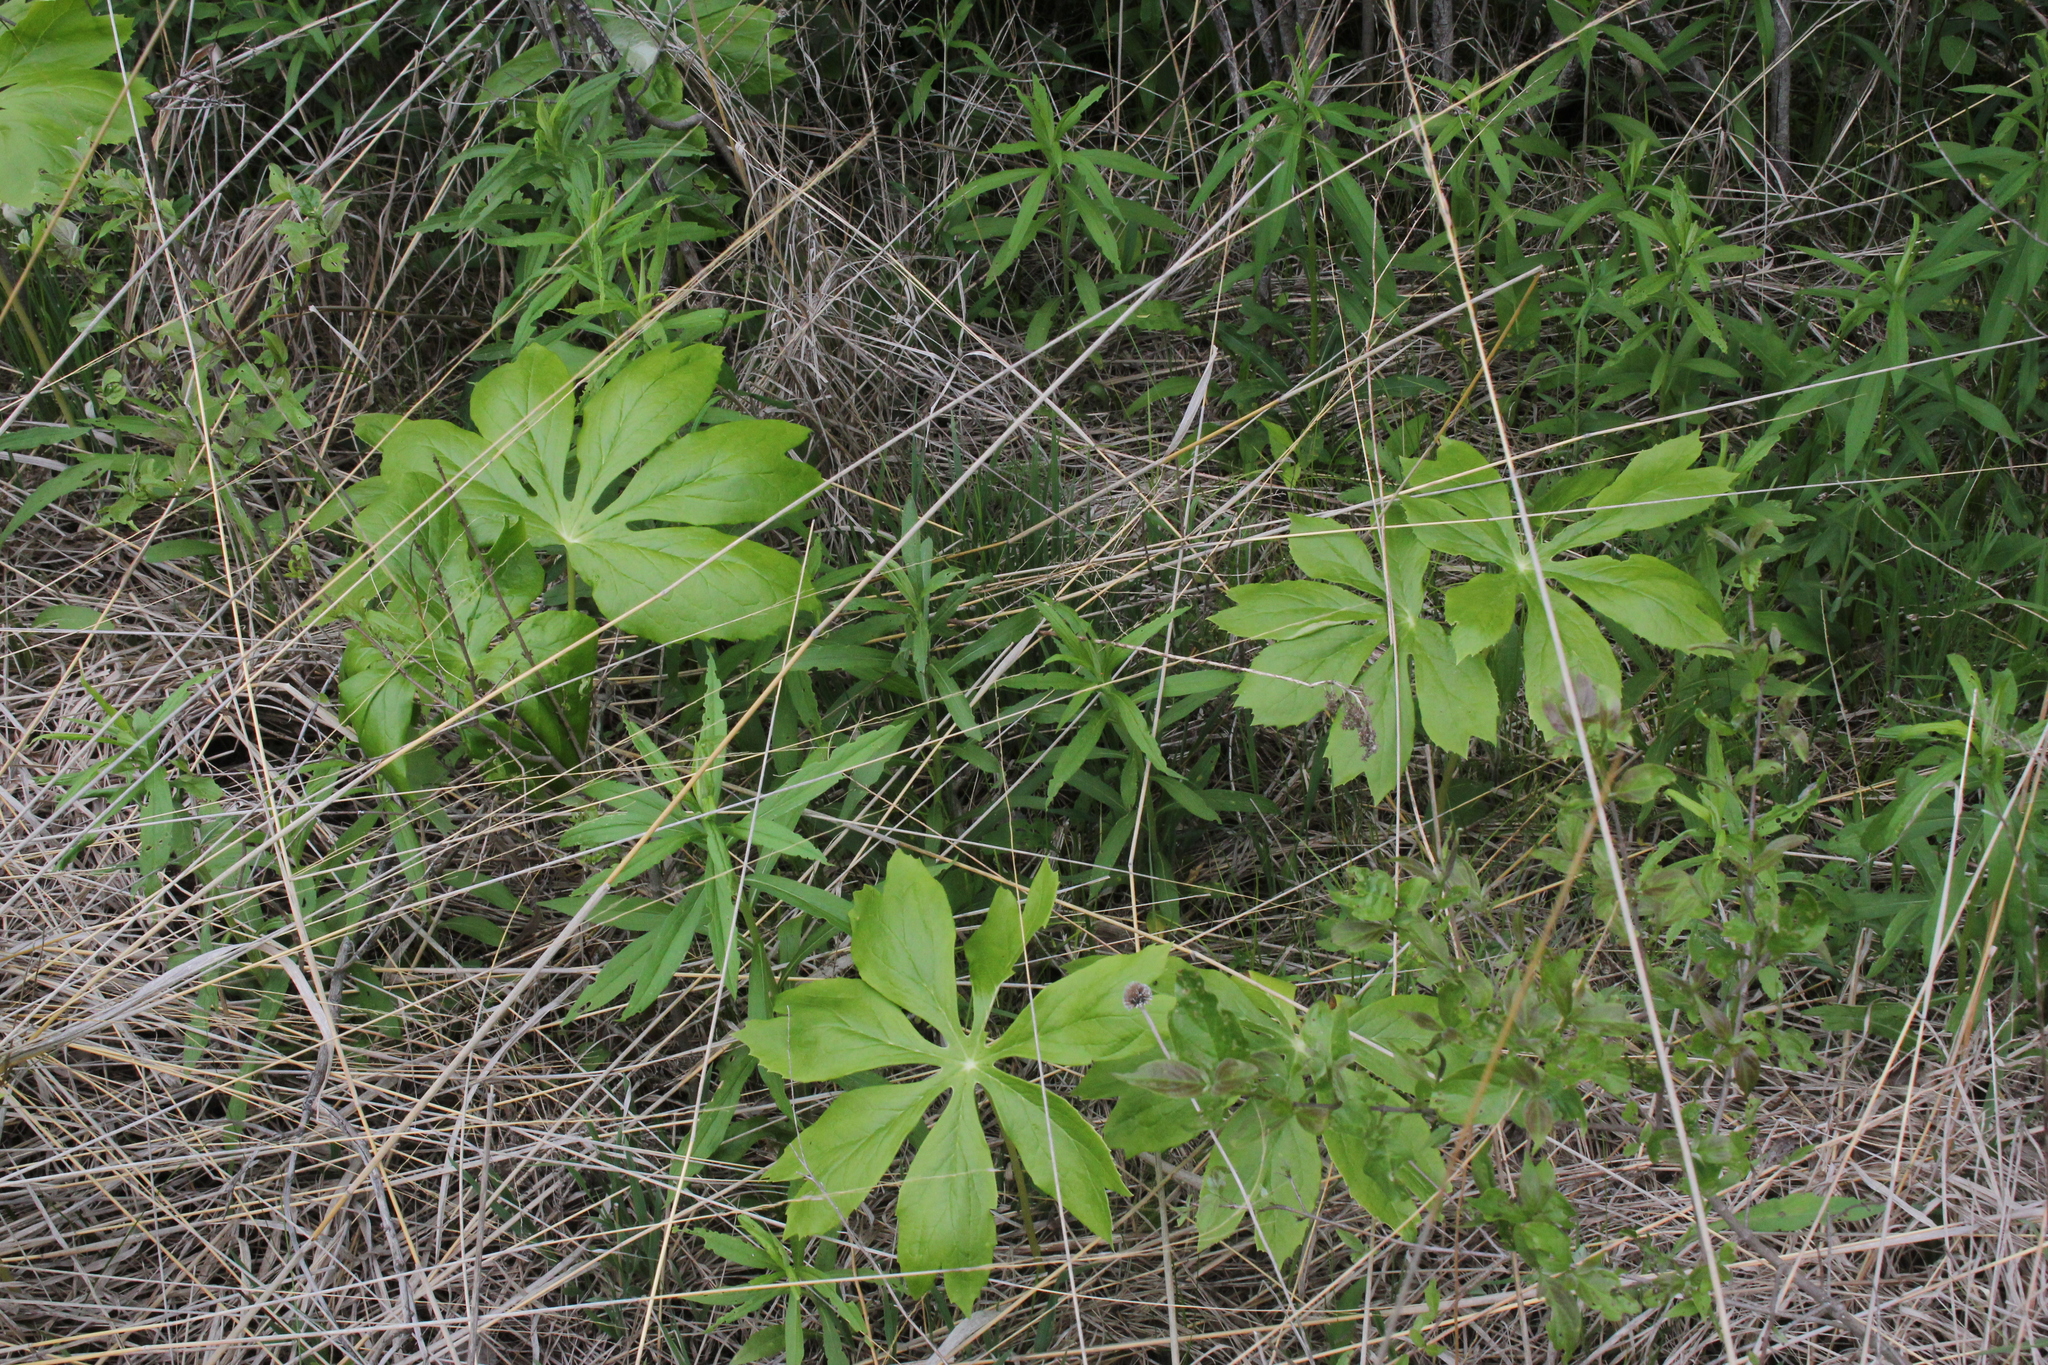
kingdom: Plantae
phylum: Tracheophyta
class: Magnoliopsida
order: Ranunculales
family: Berberidaceae
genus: Podophyllum
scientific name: Podophyllum peltatum
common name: Wild mandrake
